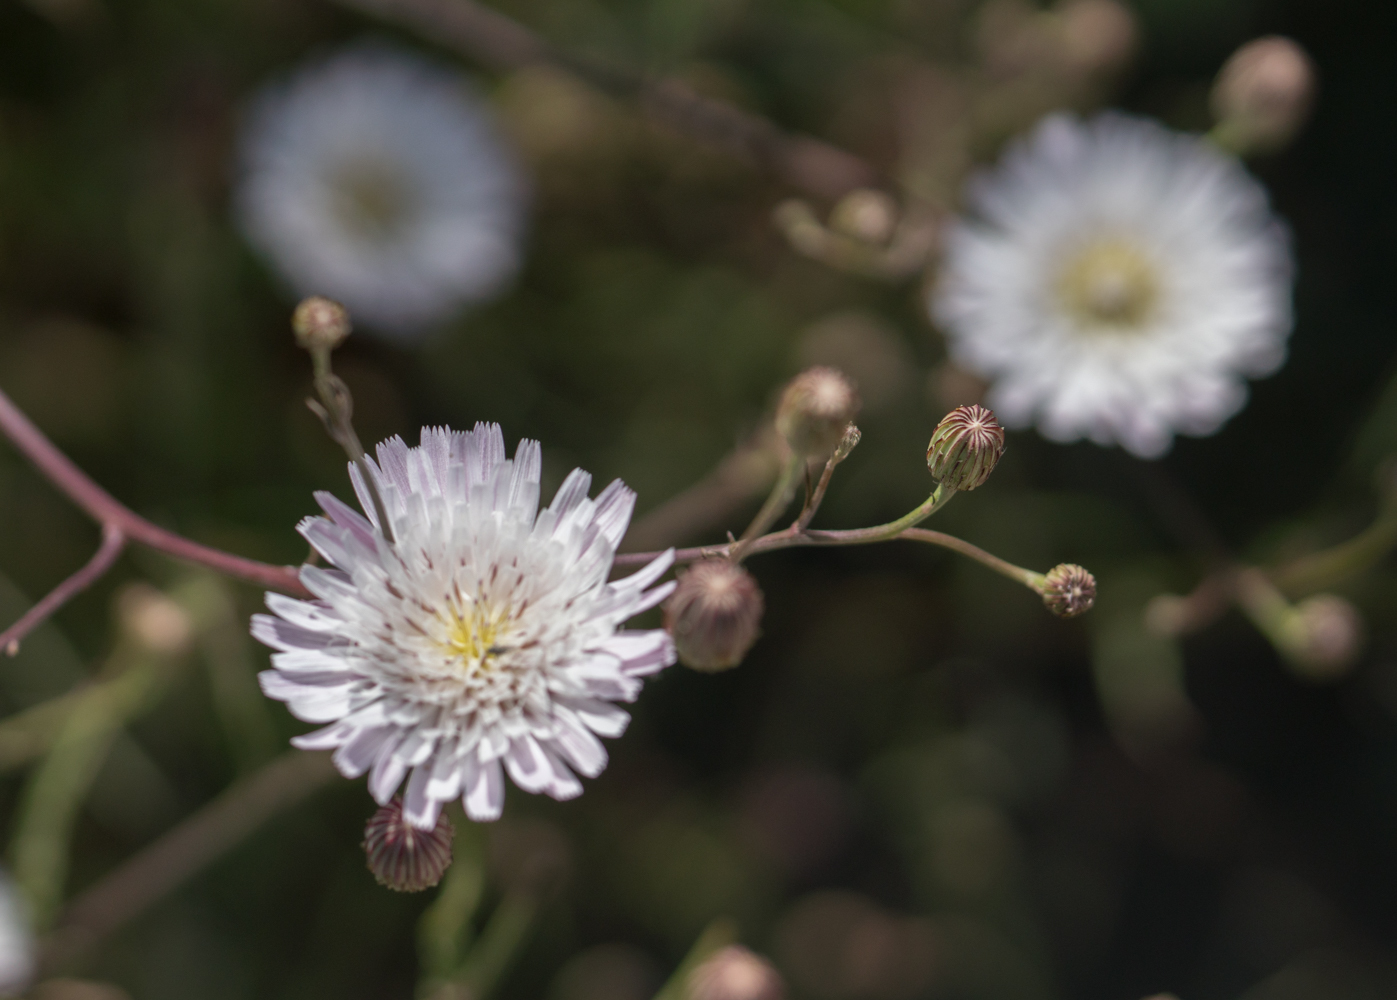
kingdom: Plantae
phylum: Tracheophyta
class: Magnoliopsida
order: Asterales
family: Asteraceae
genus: Malacothrix
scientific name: Malacothrix saxatilis
